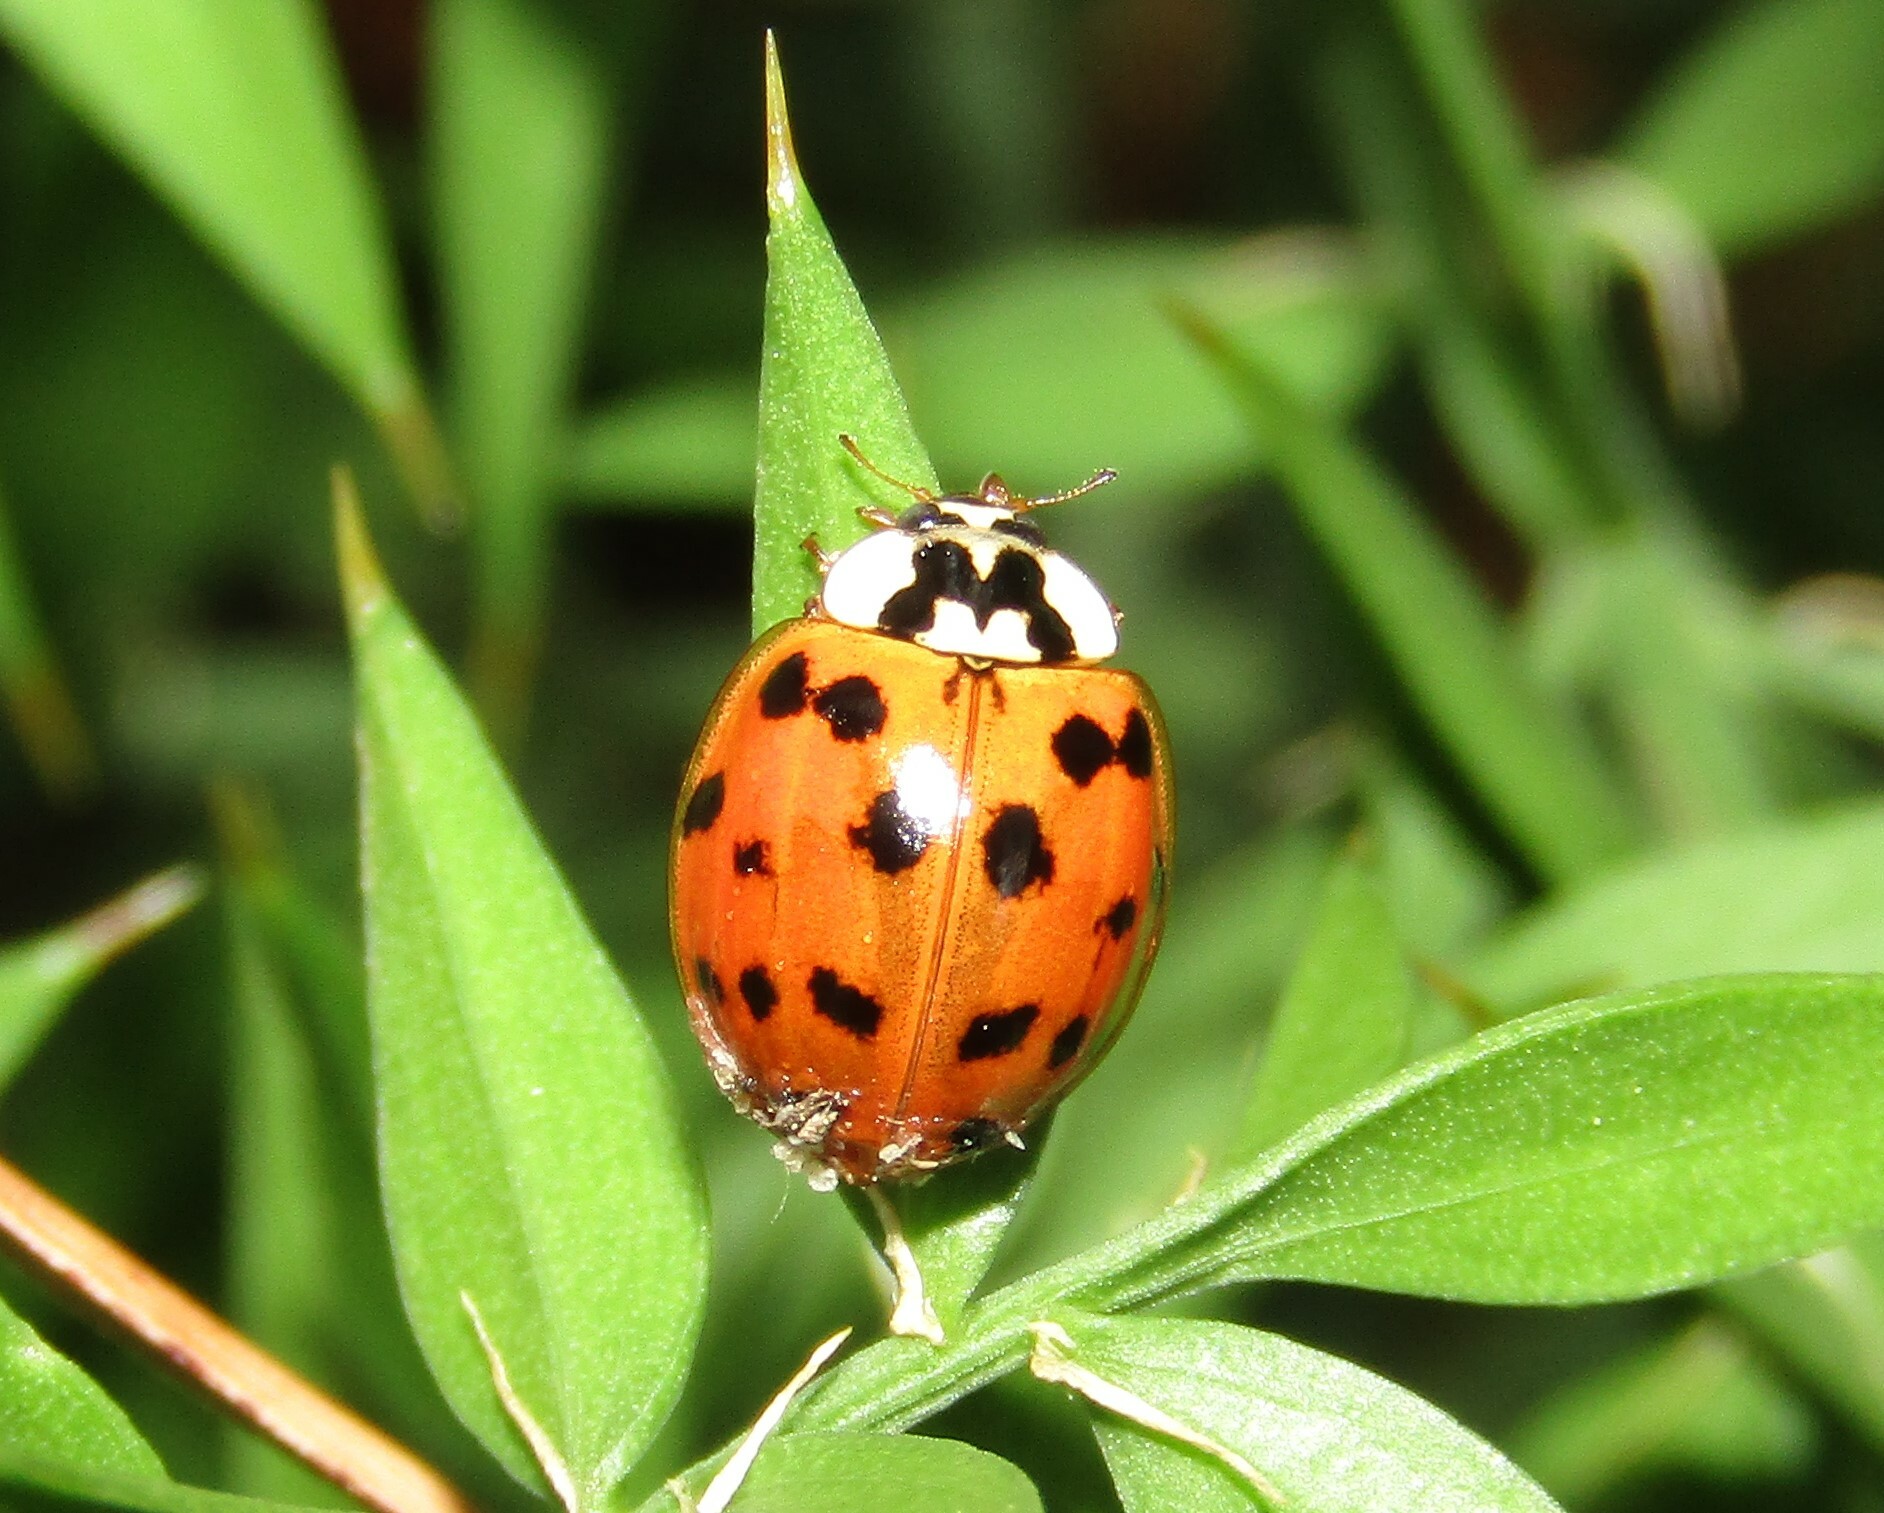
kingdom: Animalia
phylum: Arthropoda
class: Insecta
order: Coleoptera
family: Coccinellidae
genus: Harmonia
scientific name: Harmonia axyridis
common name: Harlequin ladybird
